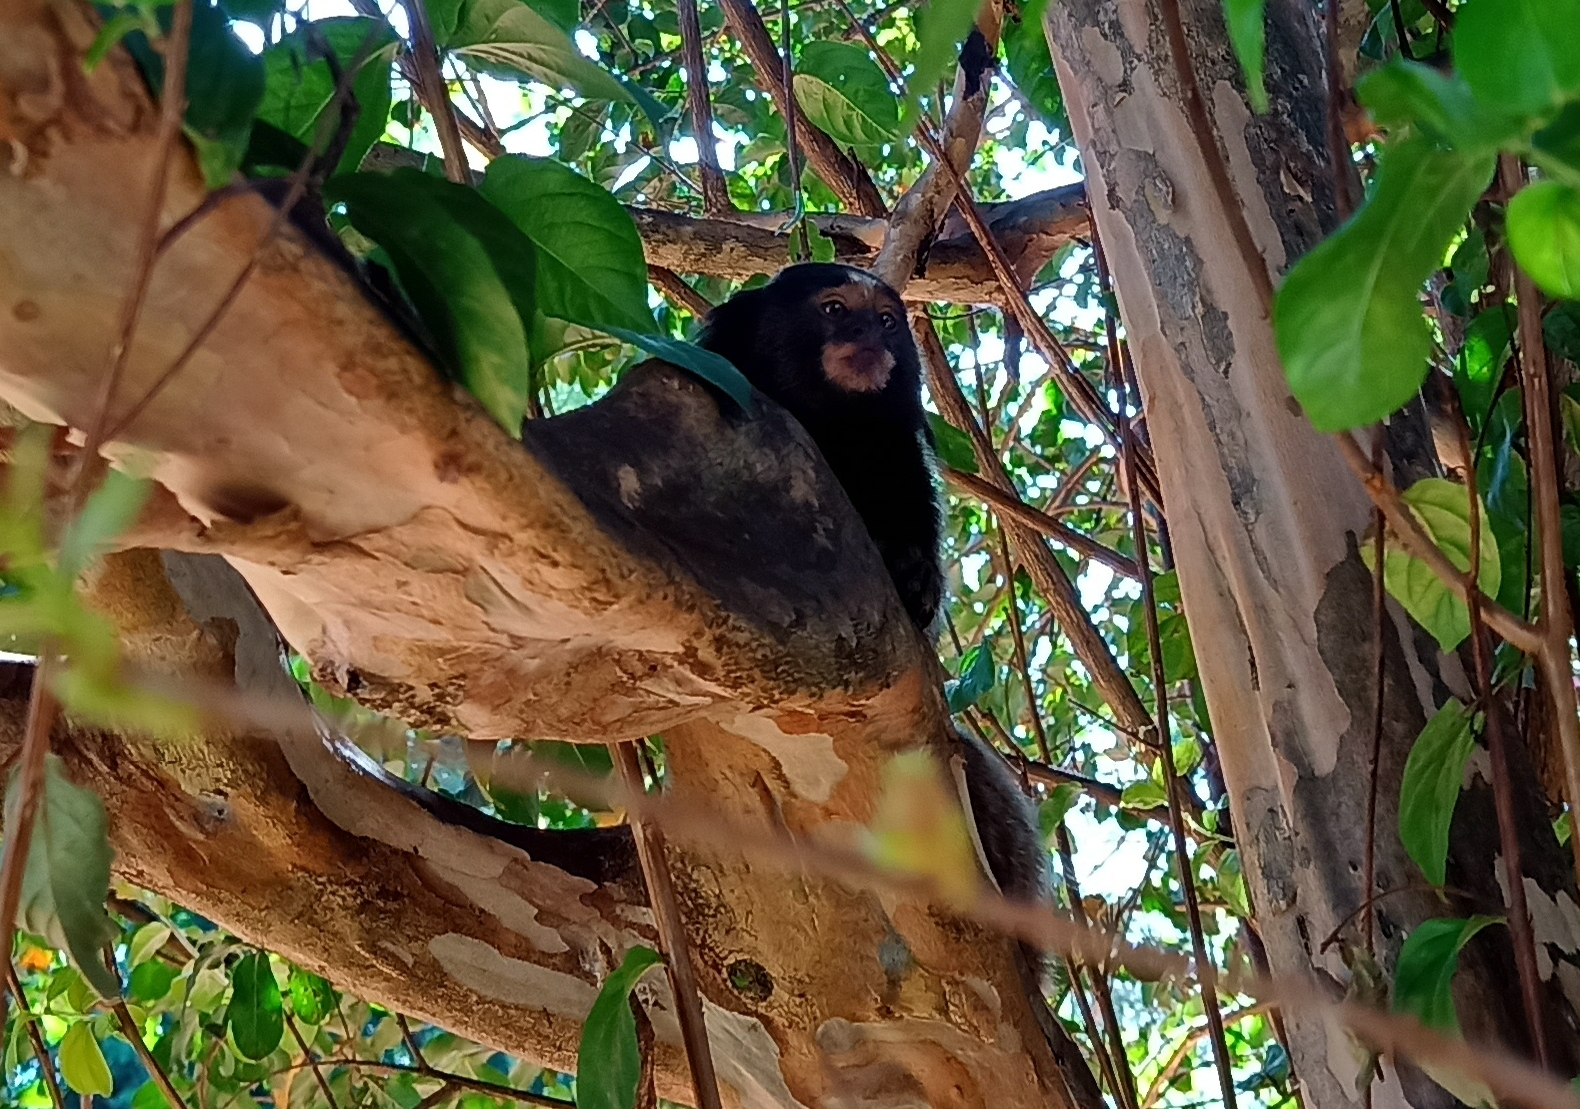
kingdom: Animalia
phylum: Chordata
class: Mammalia
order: Primates
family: Callitrichidae
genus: Callithrix
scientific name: Callithrix penicillata
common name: Black-tufted marmoset
